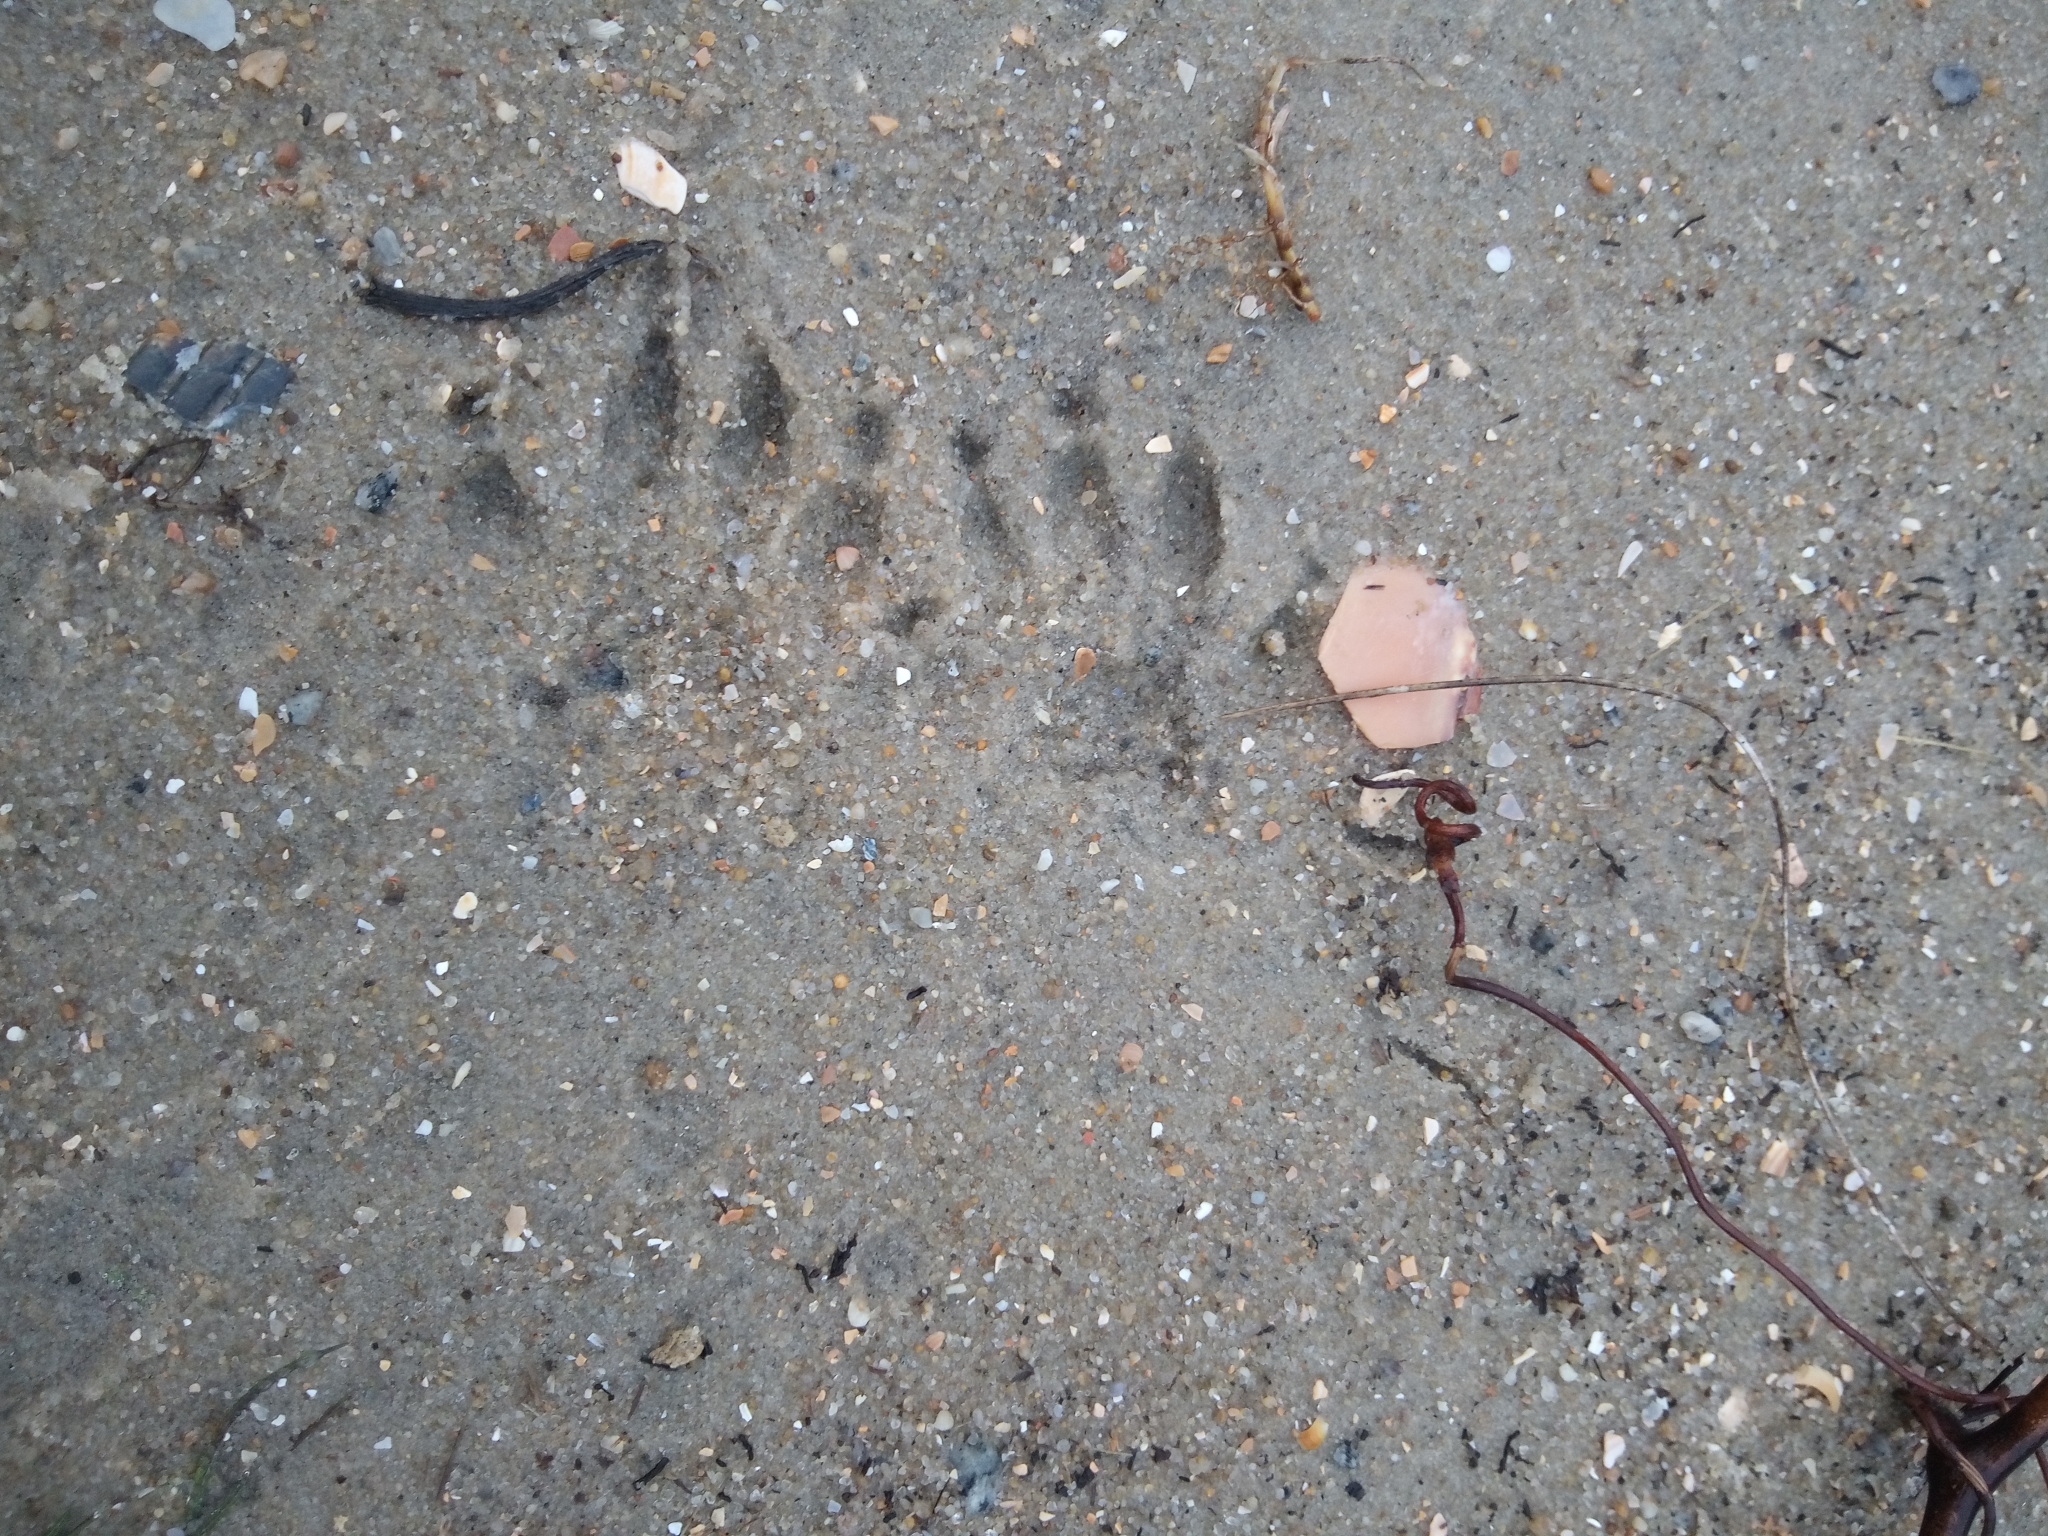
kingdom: Animalia
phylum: Chordata
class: Mammalia
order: Carnivora
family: Procyonidae
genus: Procyon
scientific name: Procyon lotor
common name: Raccoon
